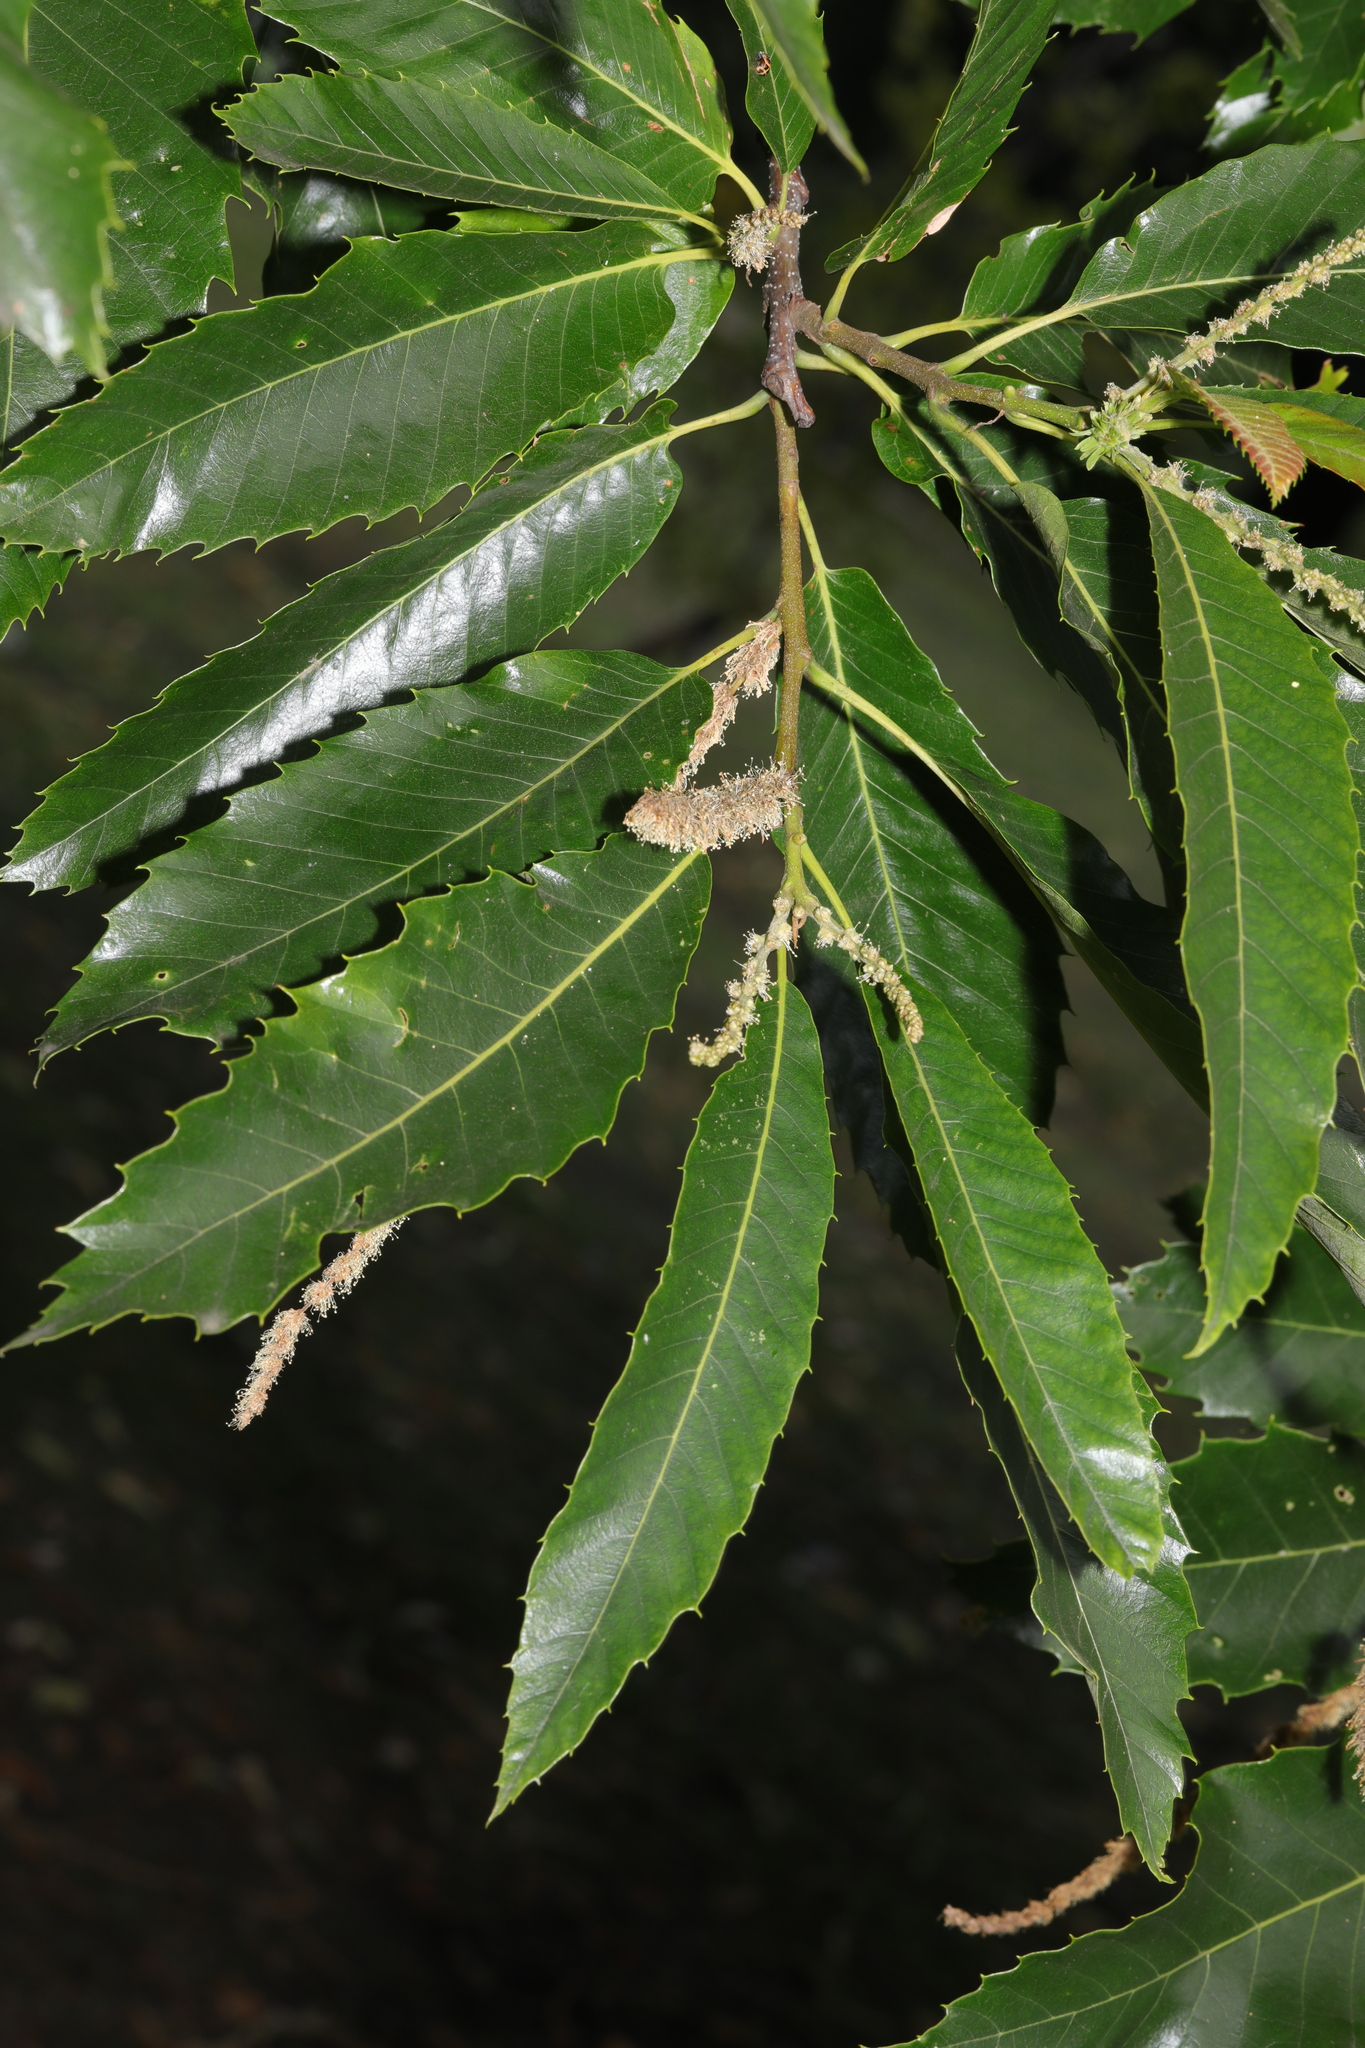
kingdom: Plantae
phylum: Tracheophyta
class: Magnoliopsida
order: Fagales
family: Fagaceae
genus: Castanea
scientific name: Castanea sativa
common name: Sweet chestnut
